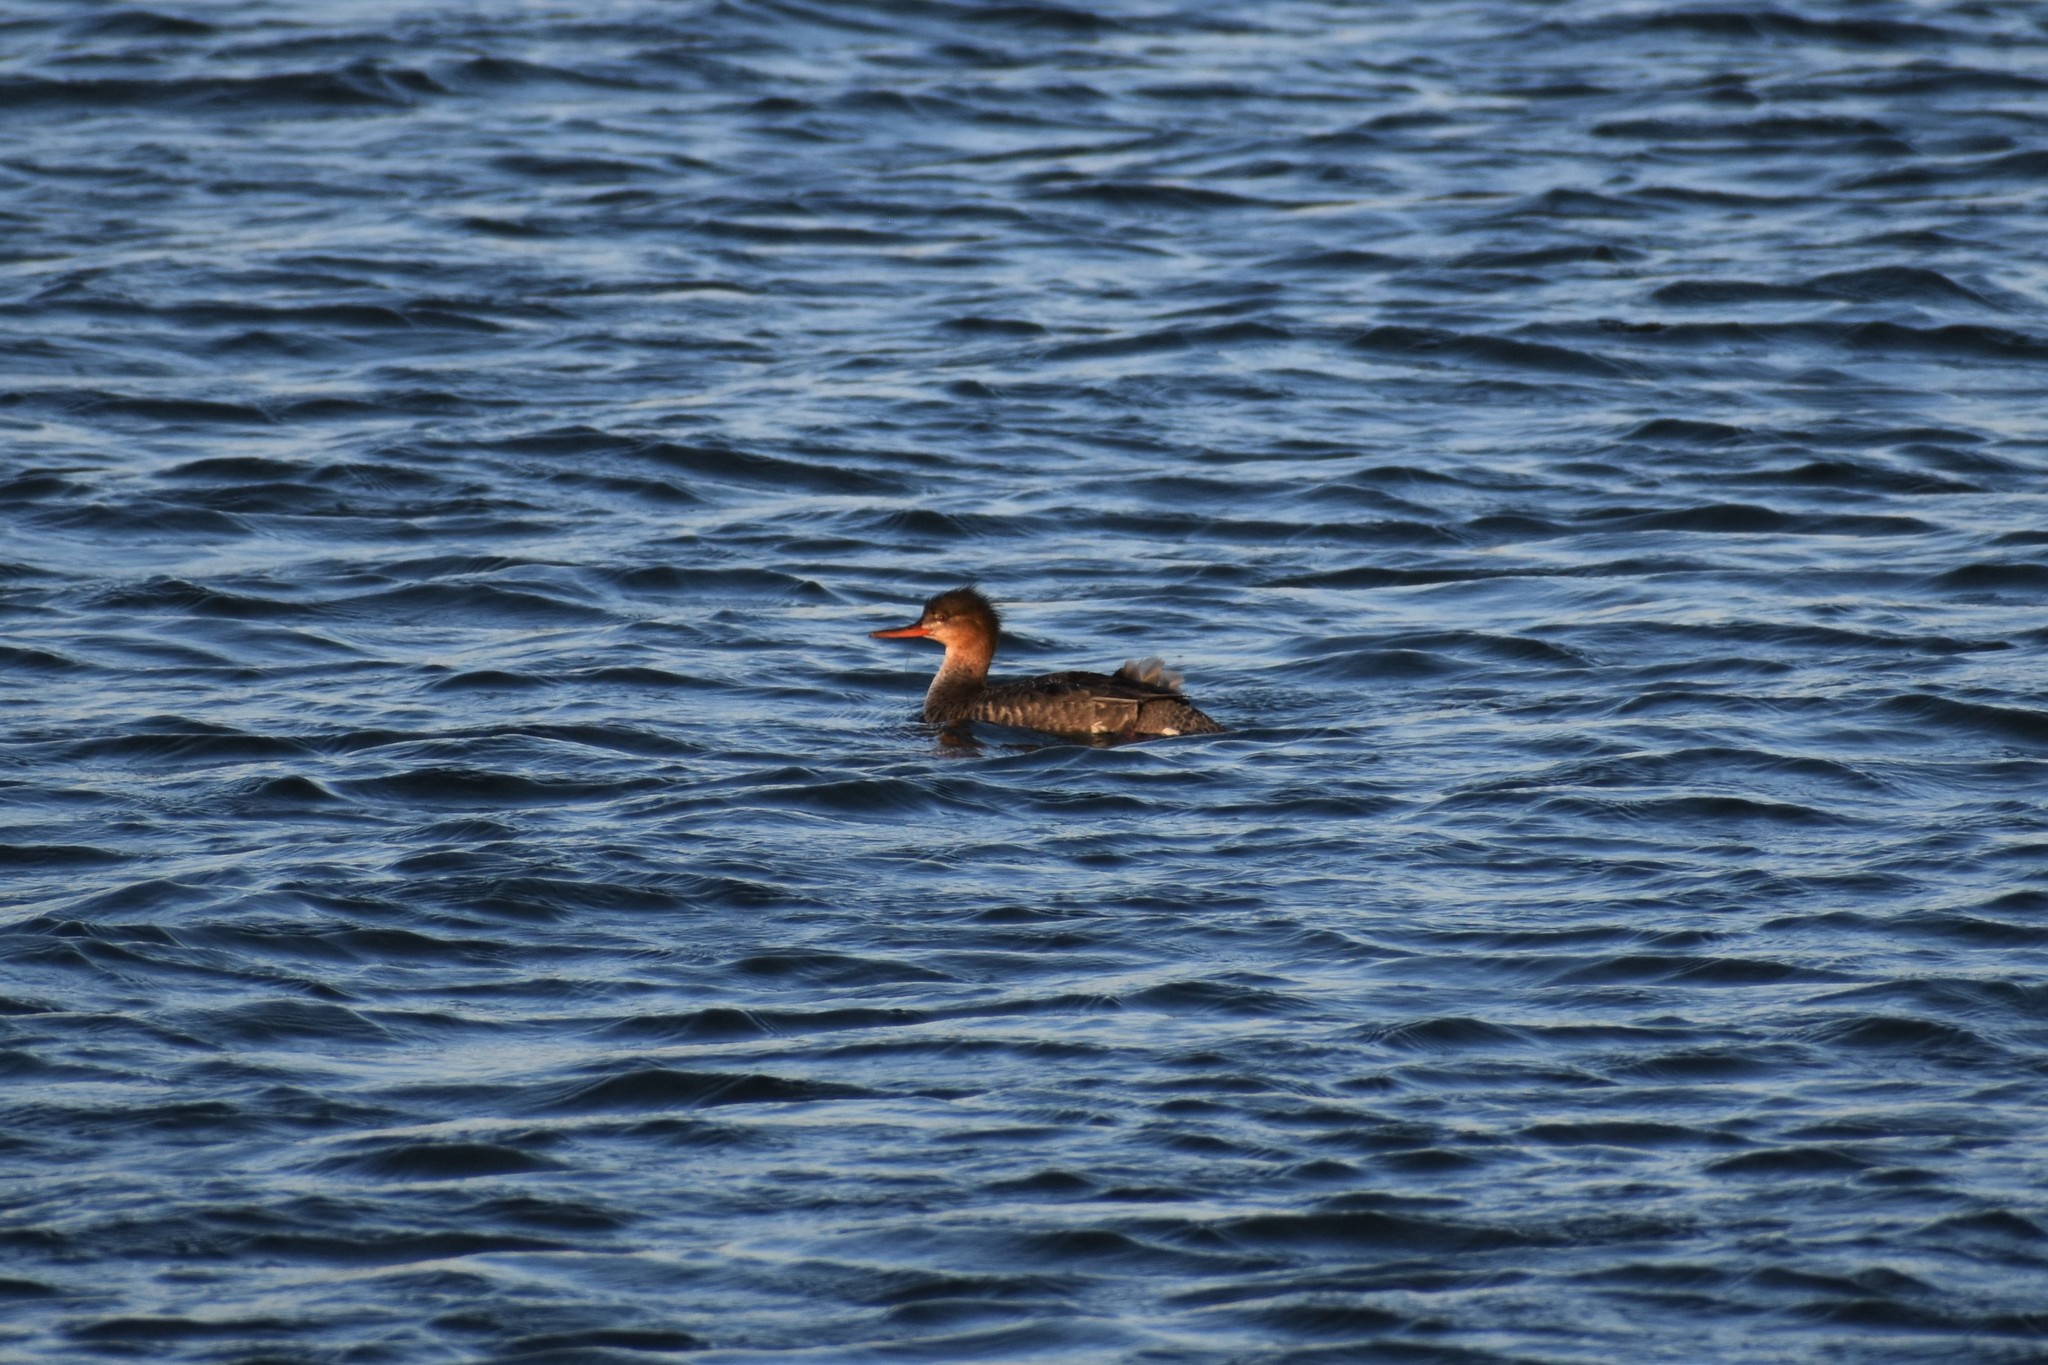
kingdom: Animalia
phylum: Chordata
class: Aves
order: Anseriformes
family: Anatidae
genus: Mergus
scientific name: Mergus serrator
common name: Red-breasted merganser
